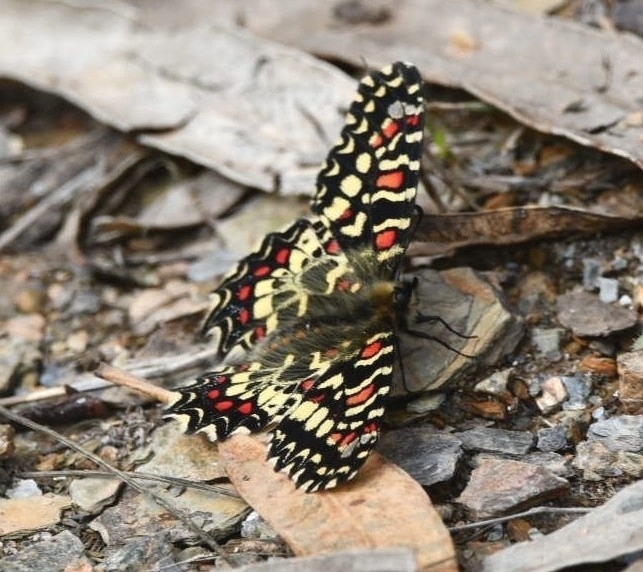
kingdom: Animalia
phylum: Arthropoda
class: Insecta
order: Lepidoptera
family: Papilionidae
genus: Zerynthia
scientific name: Zerynthia rumina
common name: Spanish festoon
